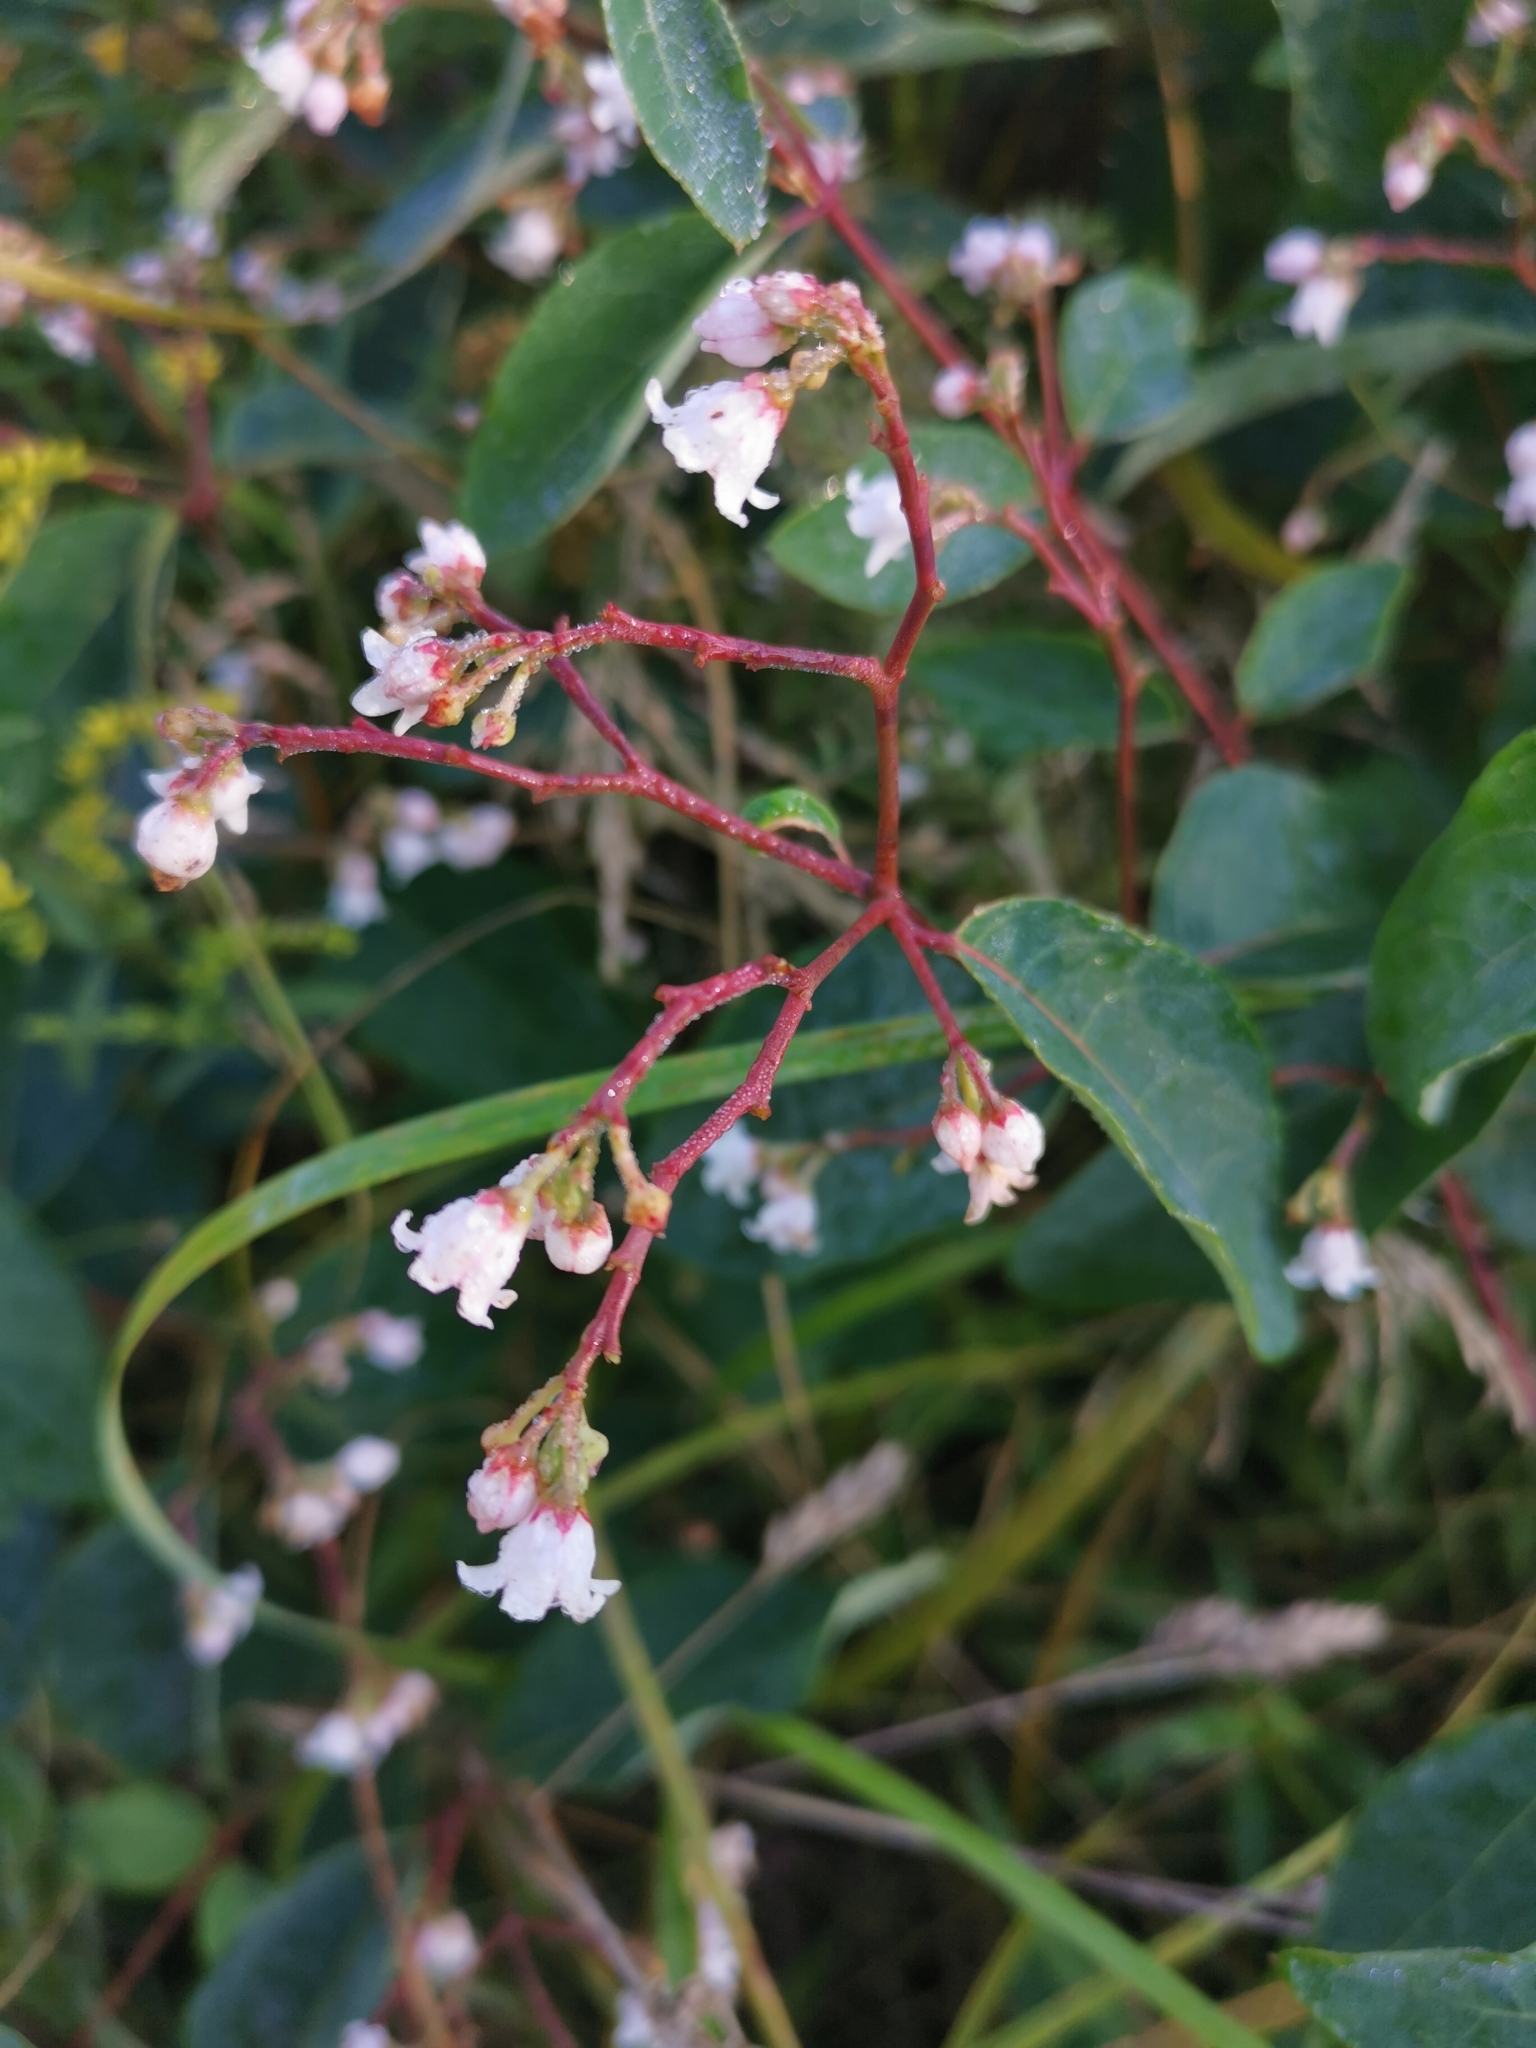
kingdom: Plantae
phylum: Tracheophyta
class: Magnoliopsida
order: Gentianales
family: Apocynaceae
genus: Apocynum
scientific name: Apocynum androsaemifolium
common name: Spreading dogbane
